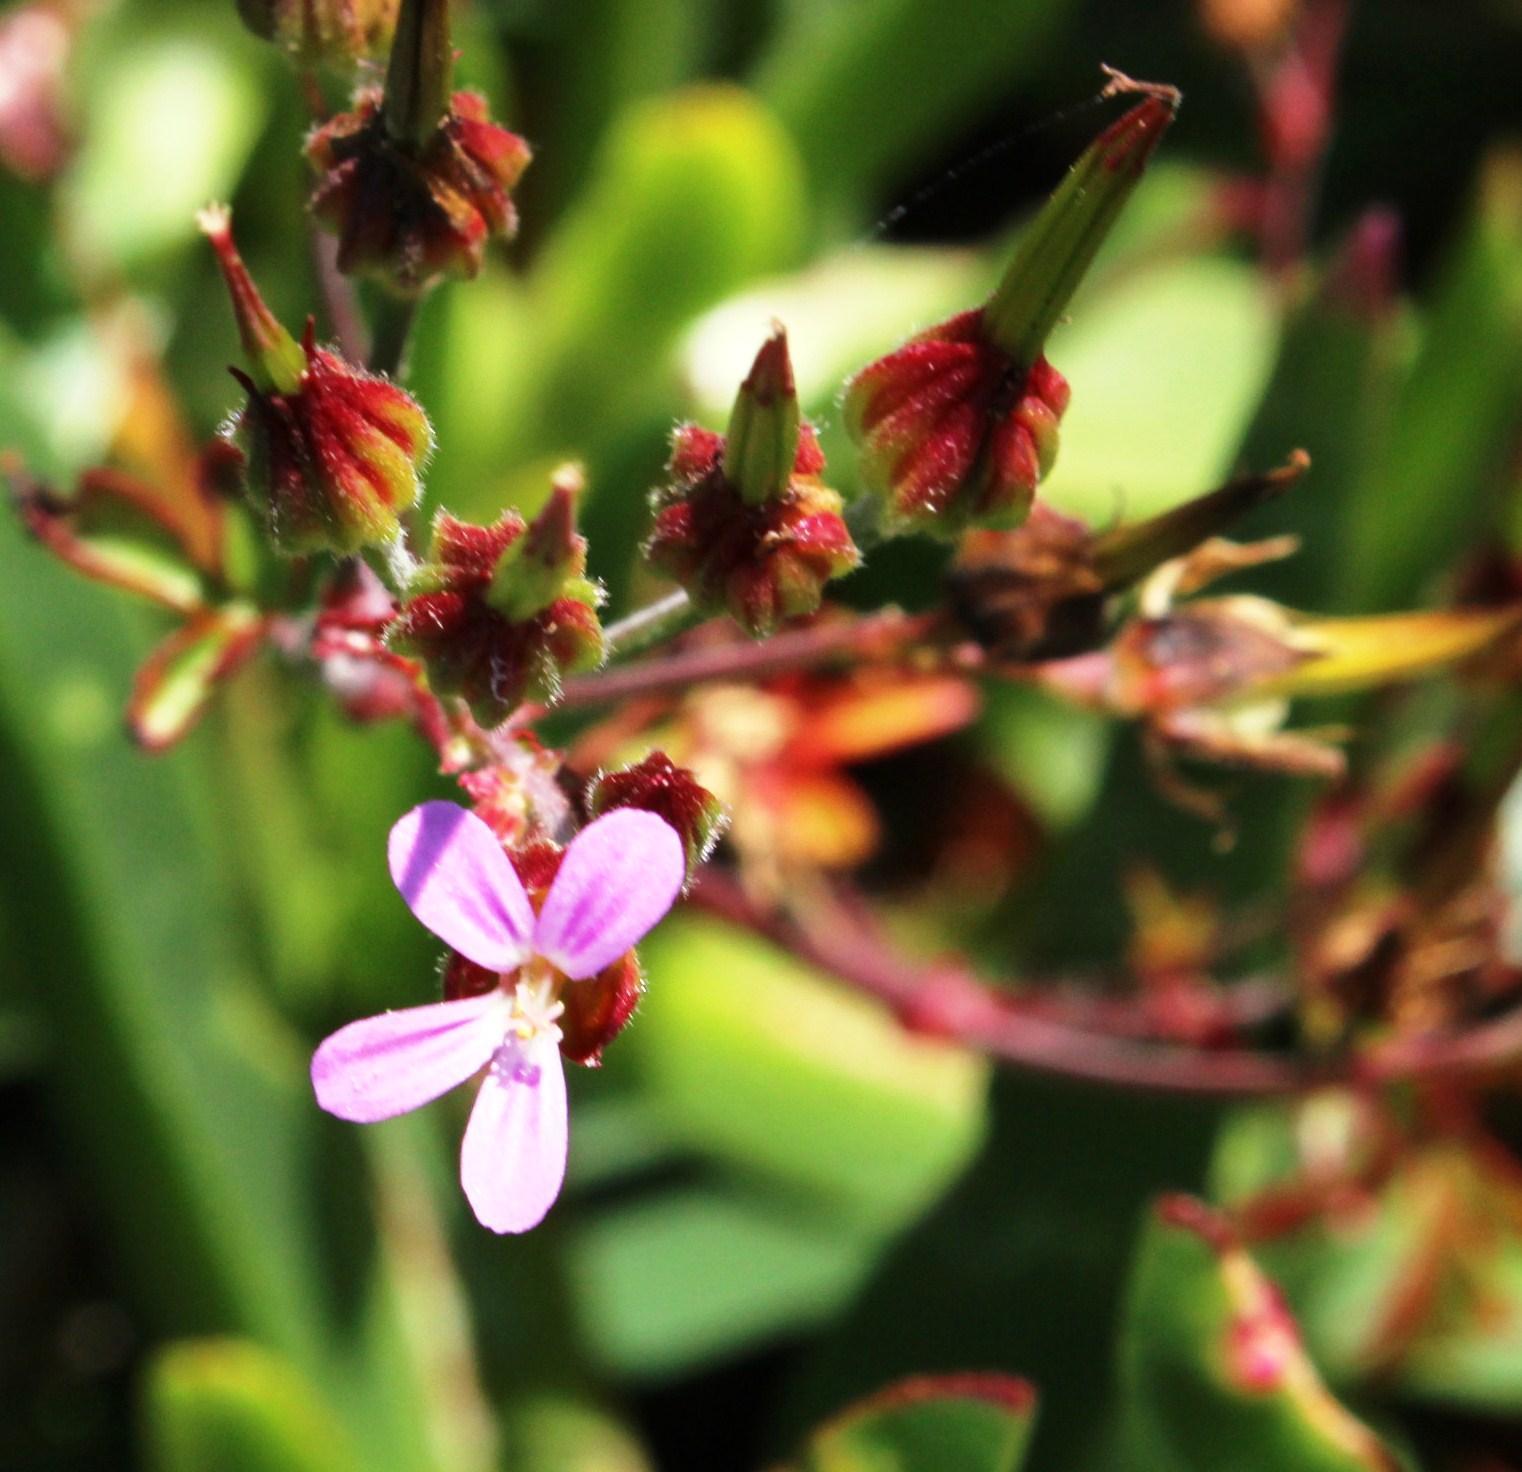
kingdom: Plantae
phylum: Tracheophyta
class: Magnoliopsida
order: Geraniales
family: Geraniaceae
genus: Geranium
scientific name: Geranium purpureum
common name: Little-robin
